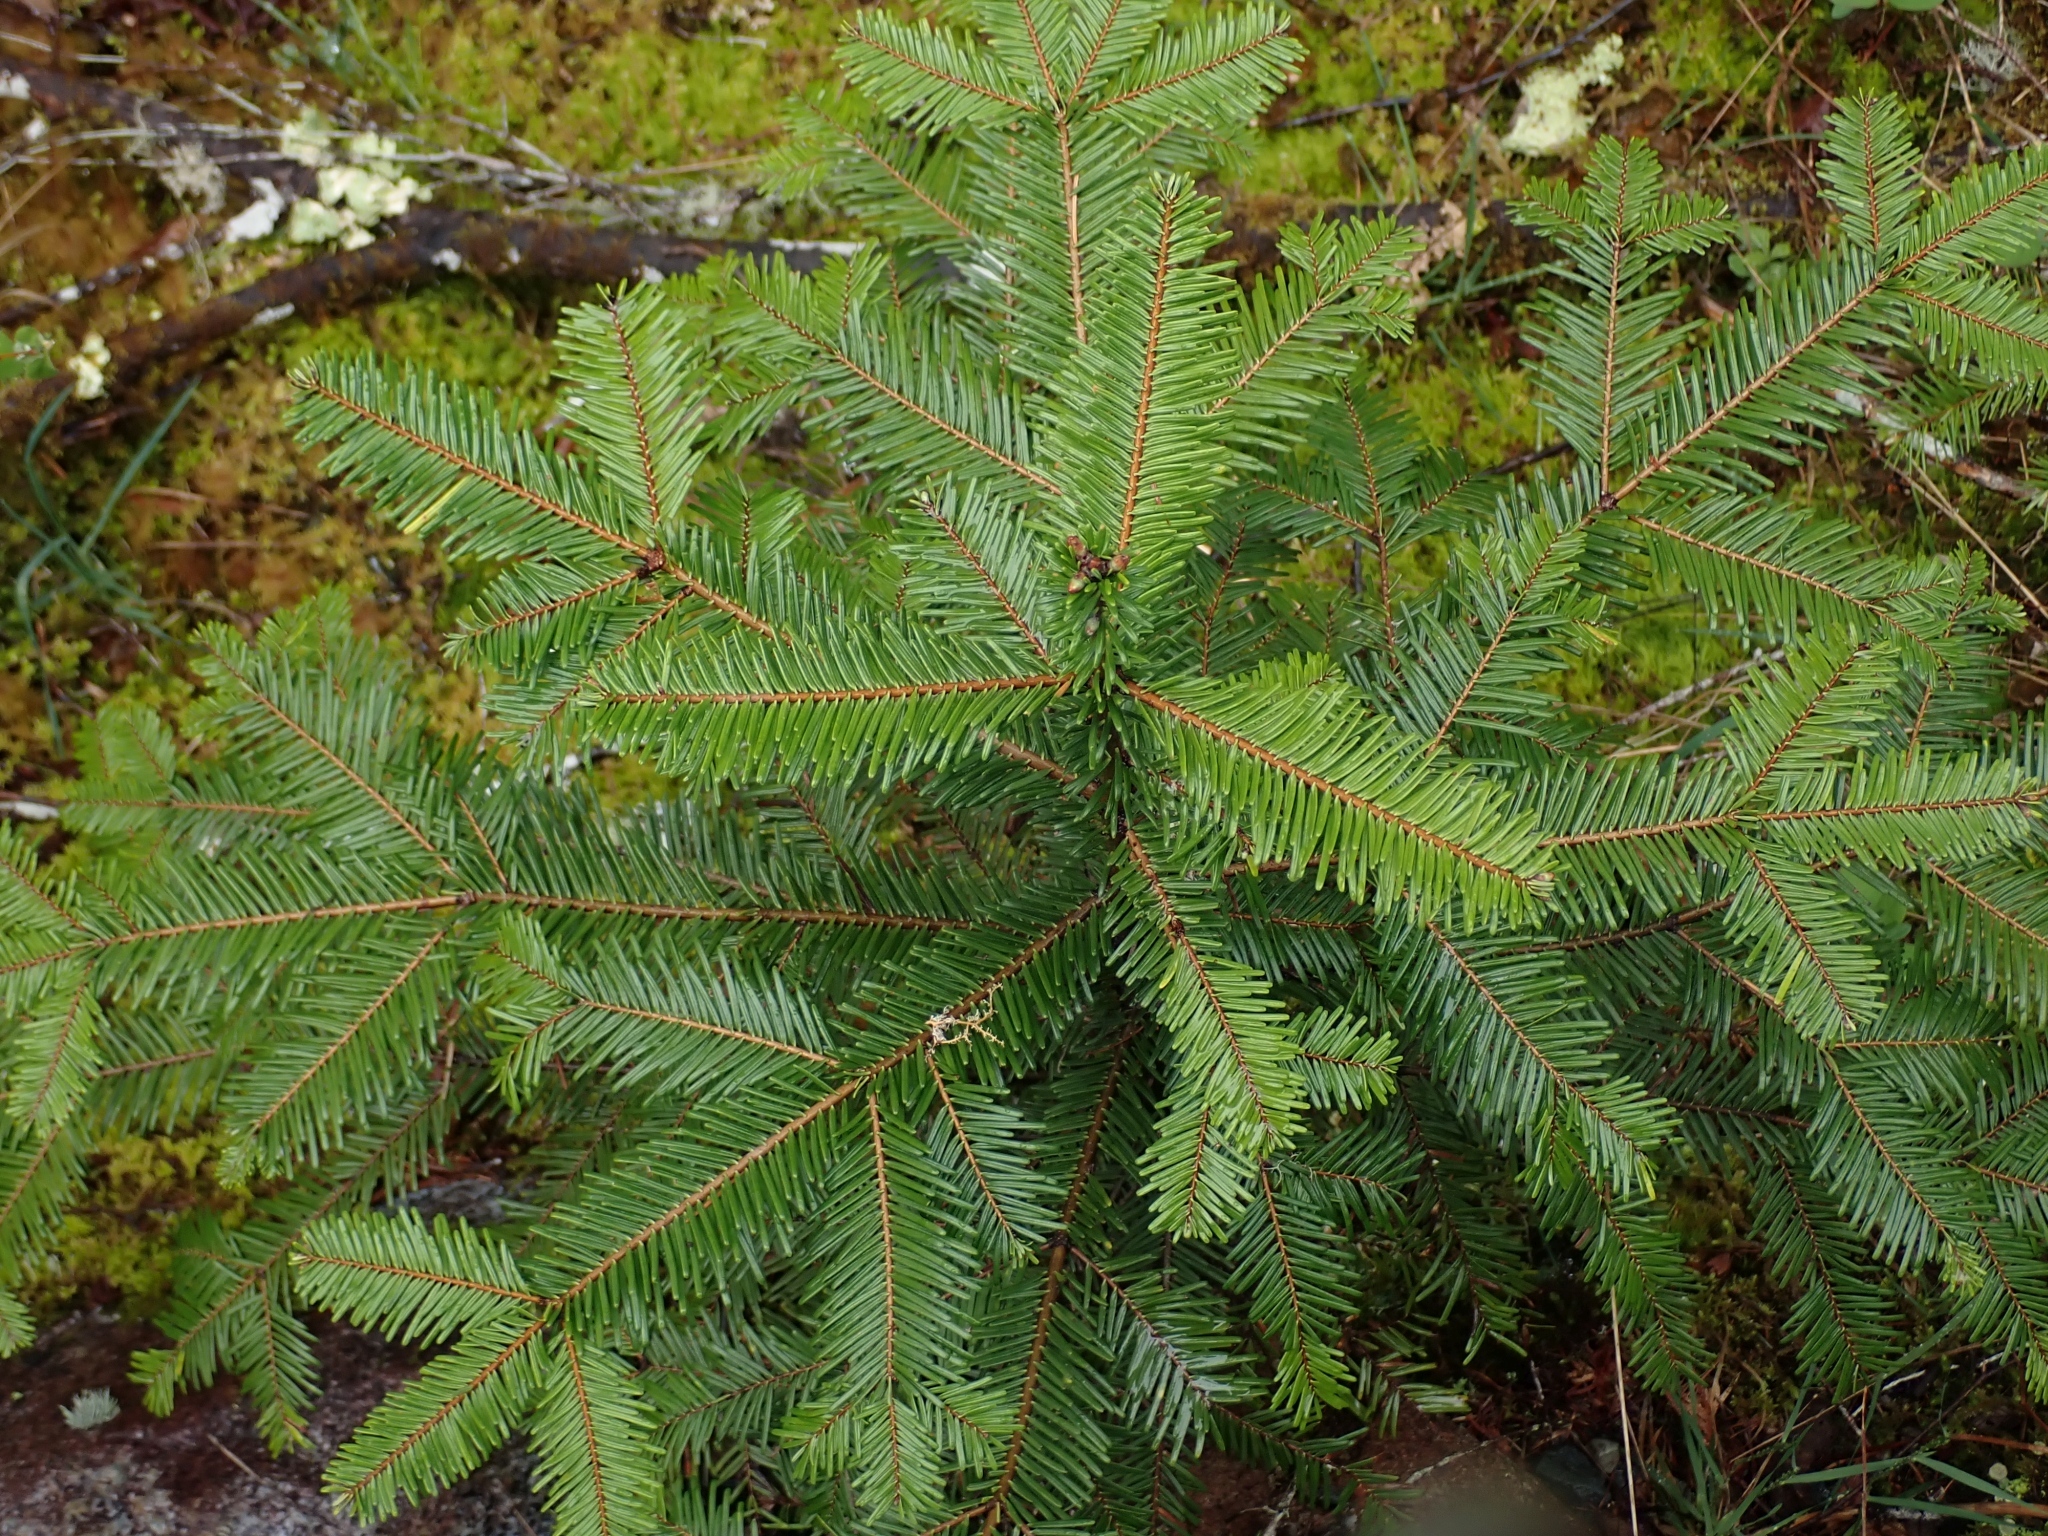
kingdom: Plantae
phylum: Tracheophyta
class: Pinopsida
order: Pinales
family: Pinaceae
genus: Abies
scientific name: Abies grandis
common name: Giant fir
